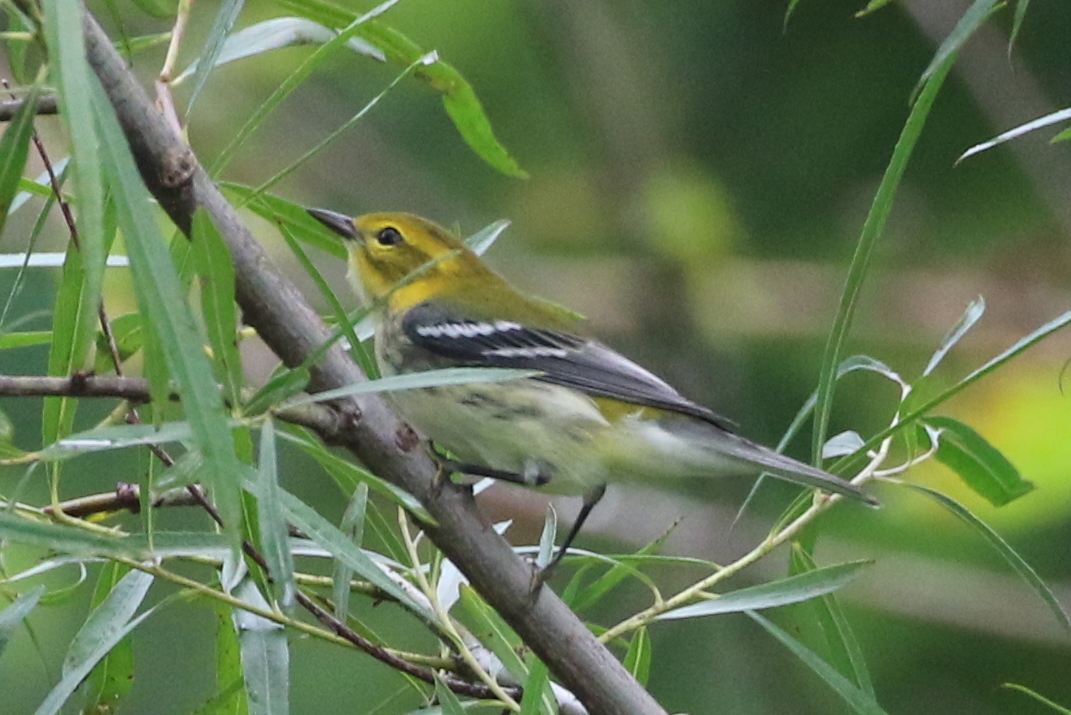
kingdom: Animalia
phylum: Chordata
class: Aves
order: Passeriformes
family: Parulidae
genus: Setophaga
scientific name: Setophaga virens
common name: Black-throated green warbler
